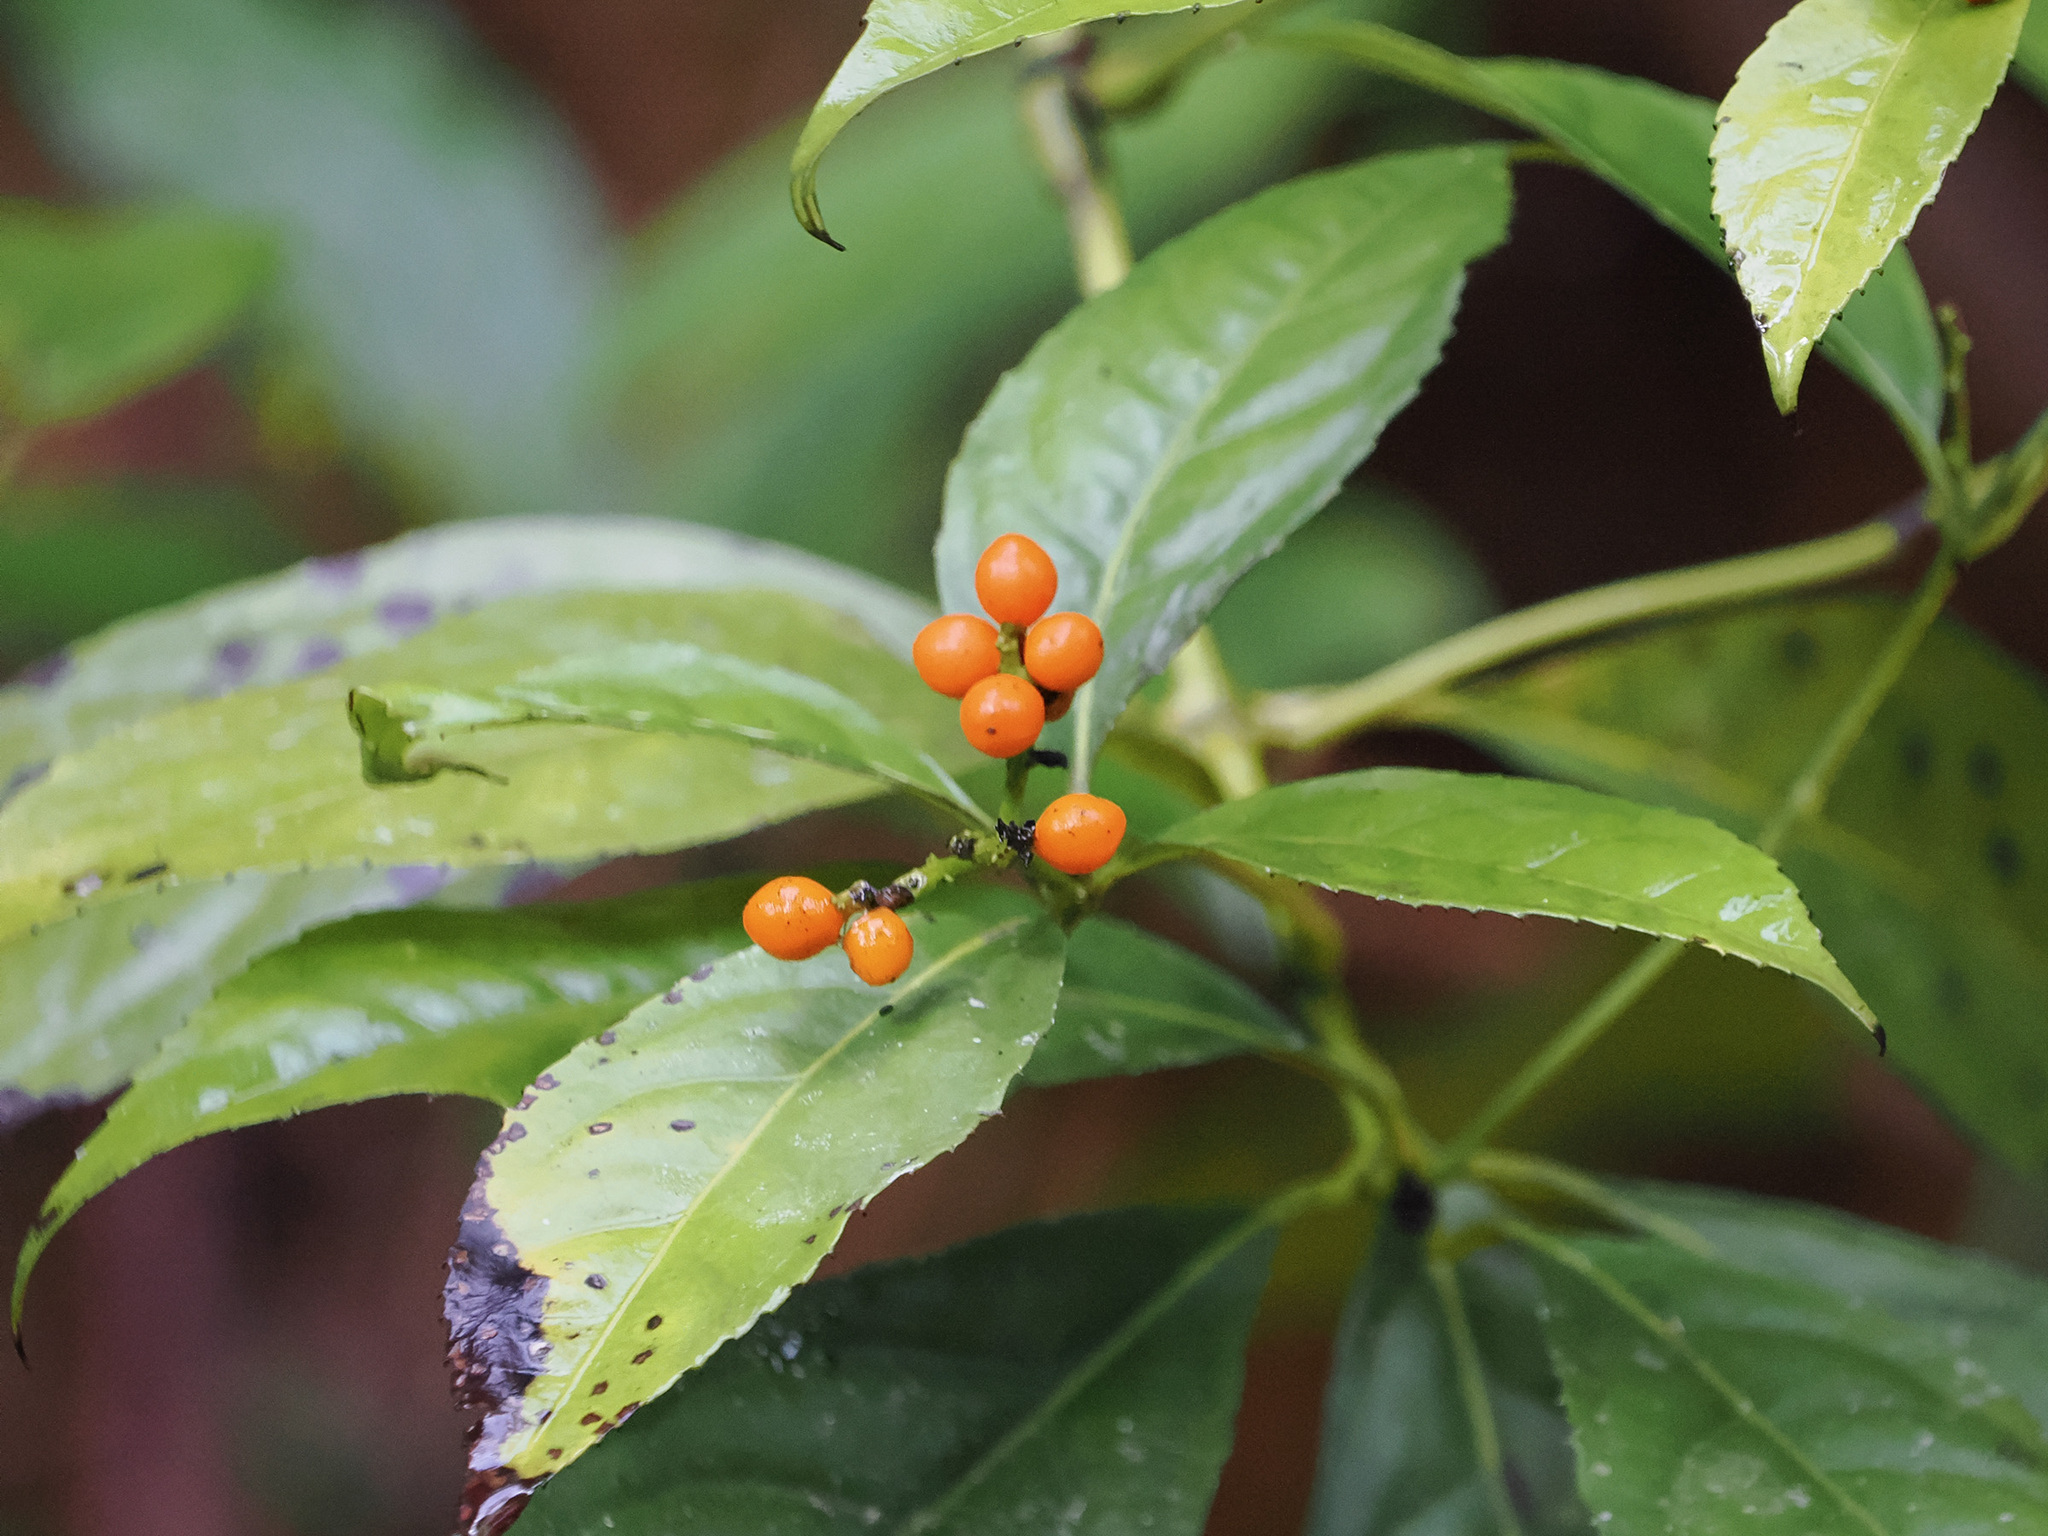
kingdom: Plantae
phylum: Tracheophyta
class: Magnoliopsida
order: Chloranthales
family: Chloranthaceae
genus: Sarcandra
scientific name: Sarcandra glabra
